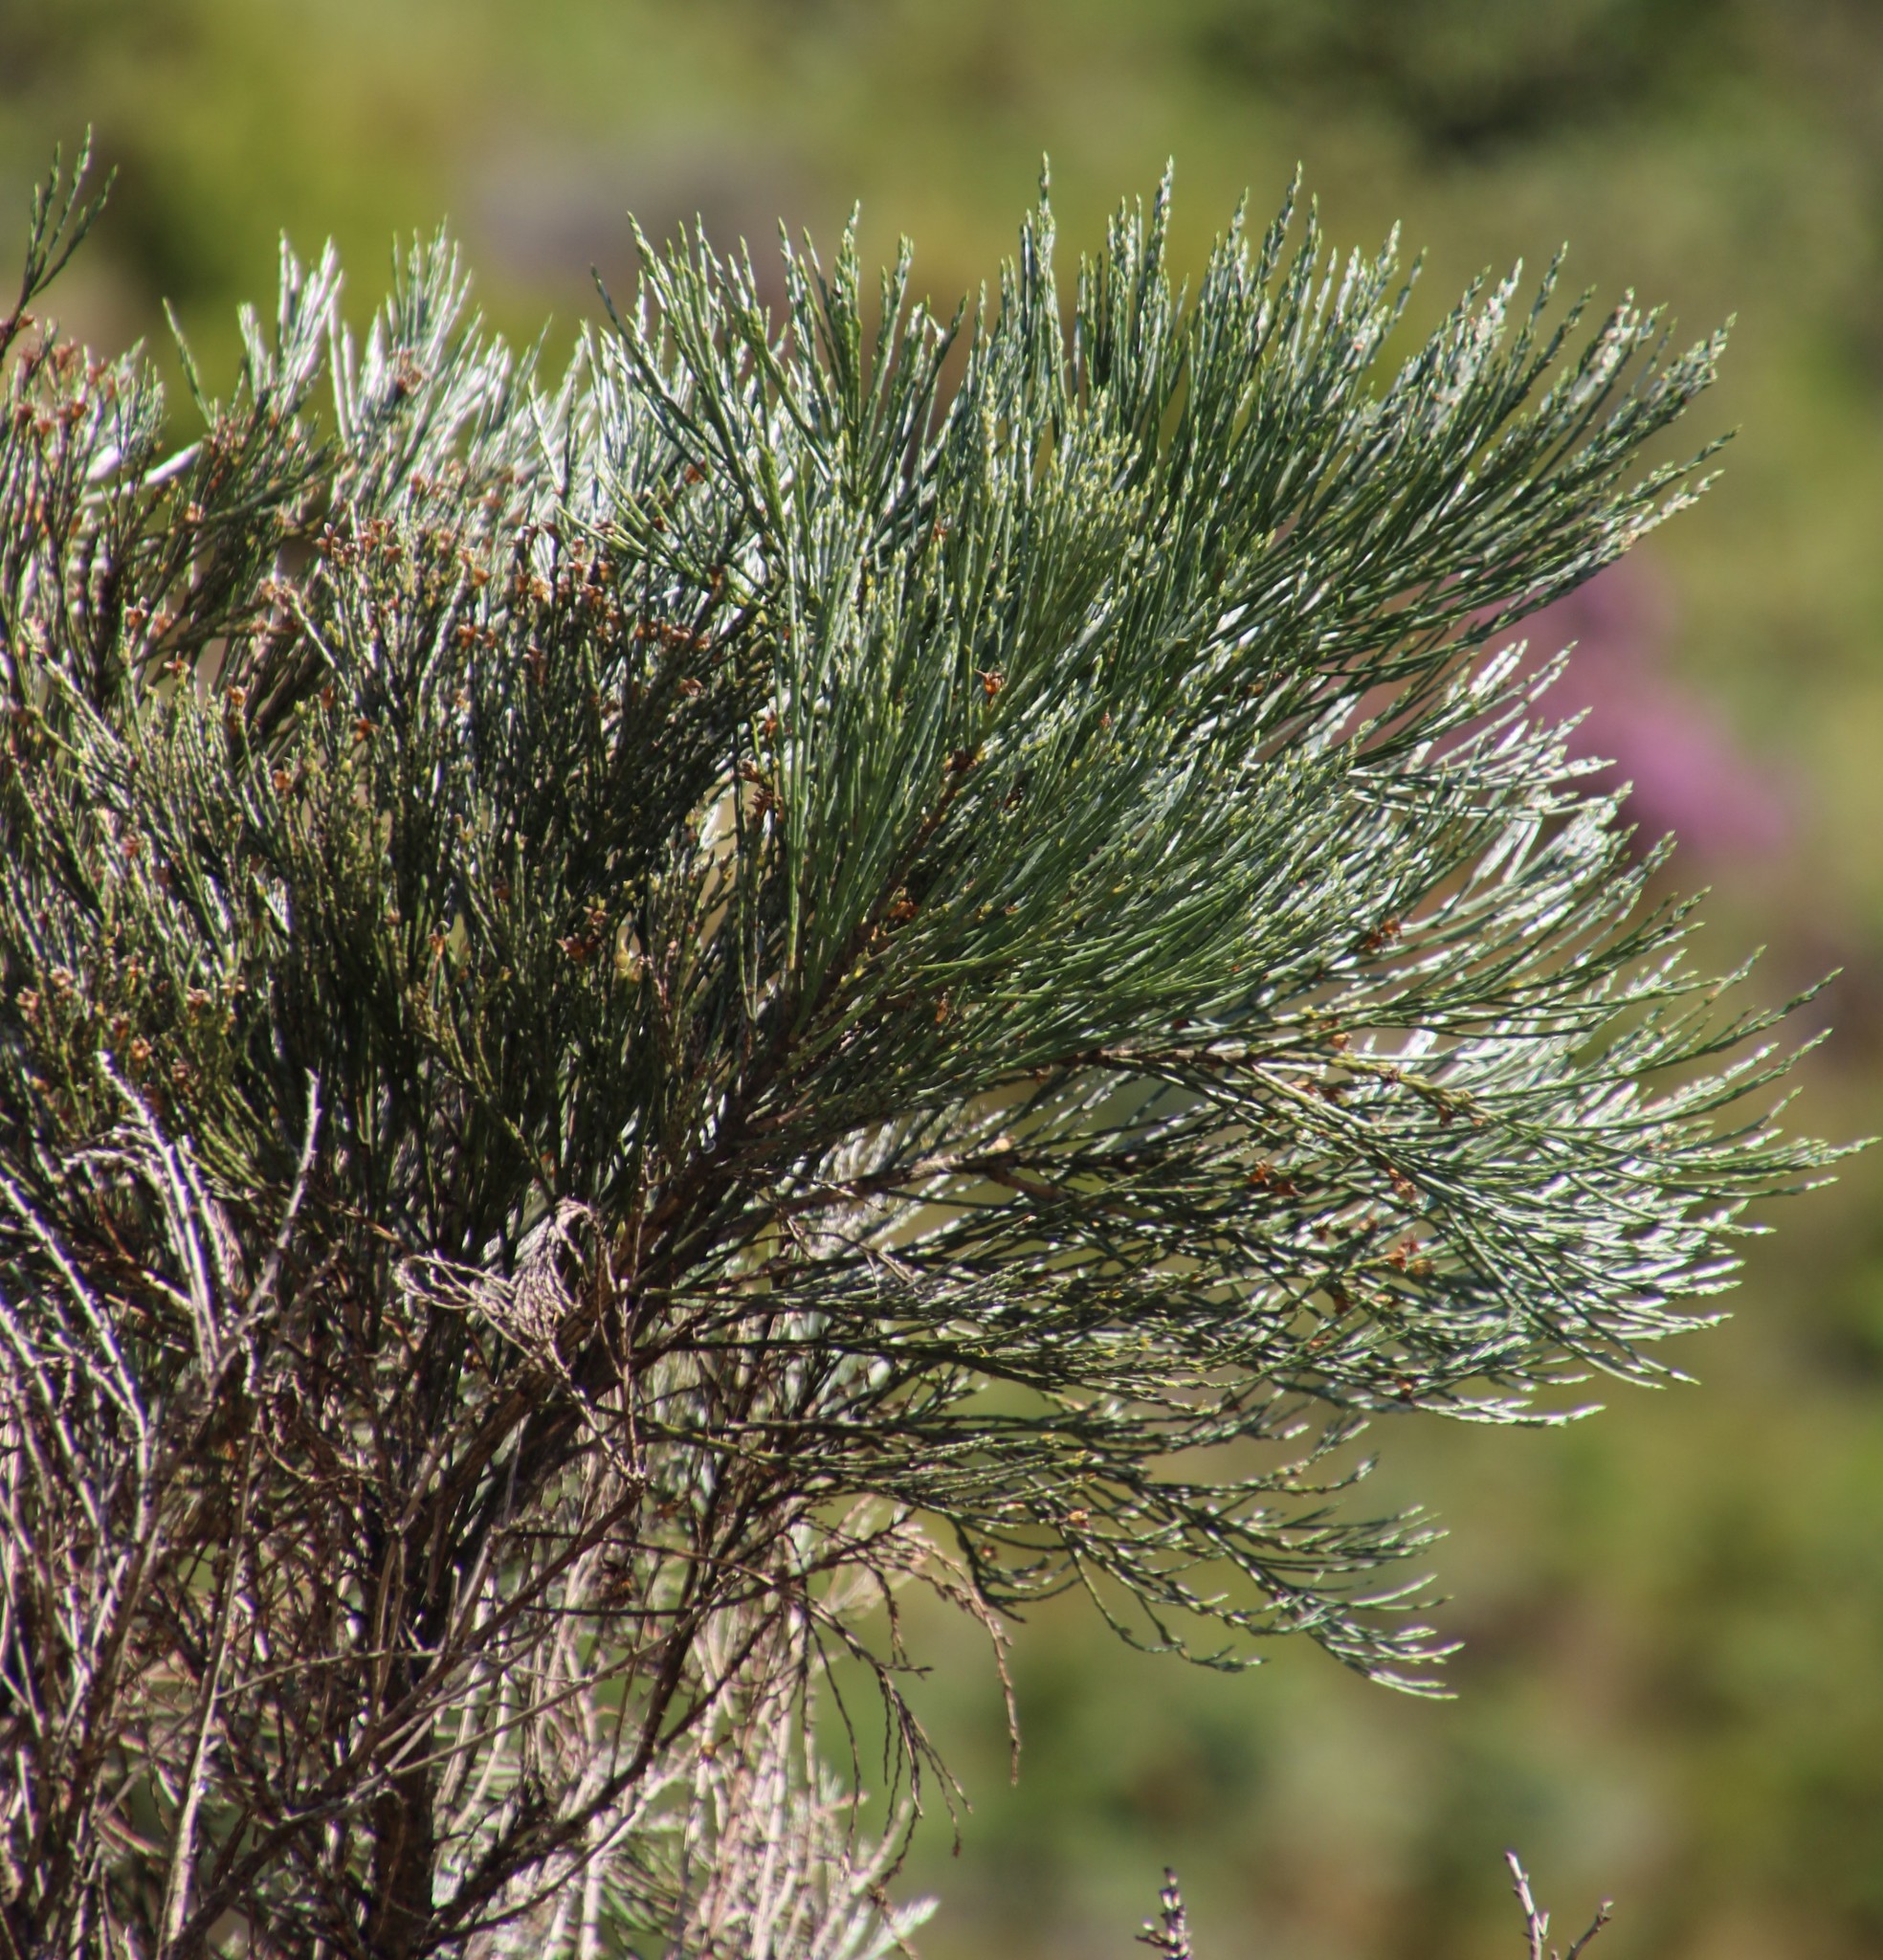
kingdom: Plantae
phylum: Tracheophyta
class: Magnoliopsida
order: Fabales
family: Fabaceae
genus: Psoralea
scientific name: Psoralea aphylla
